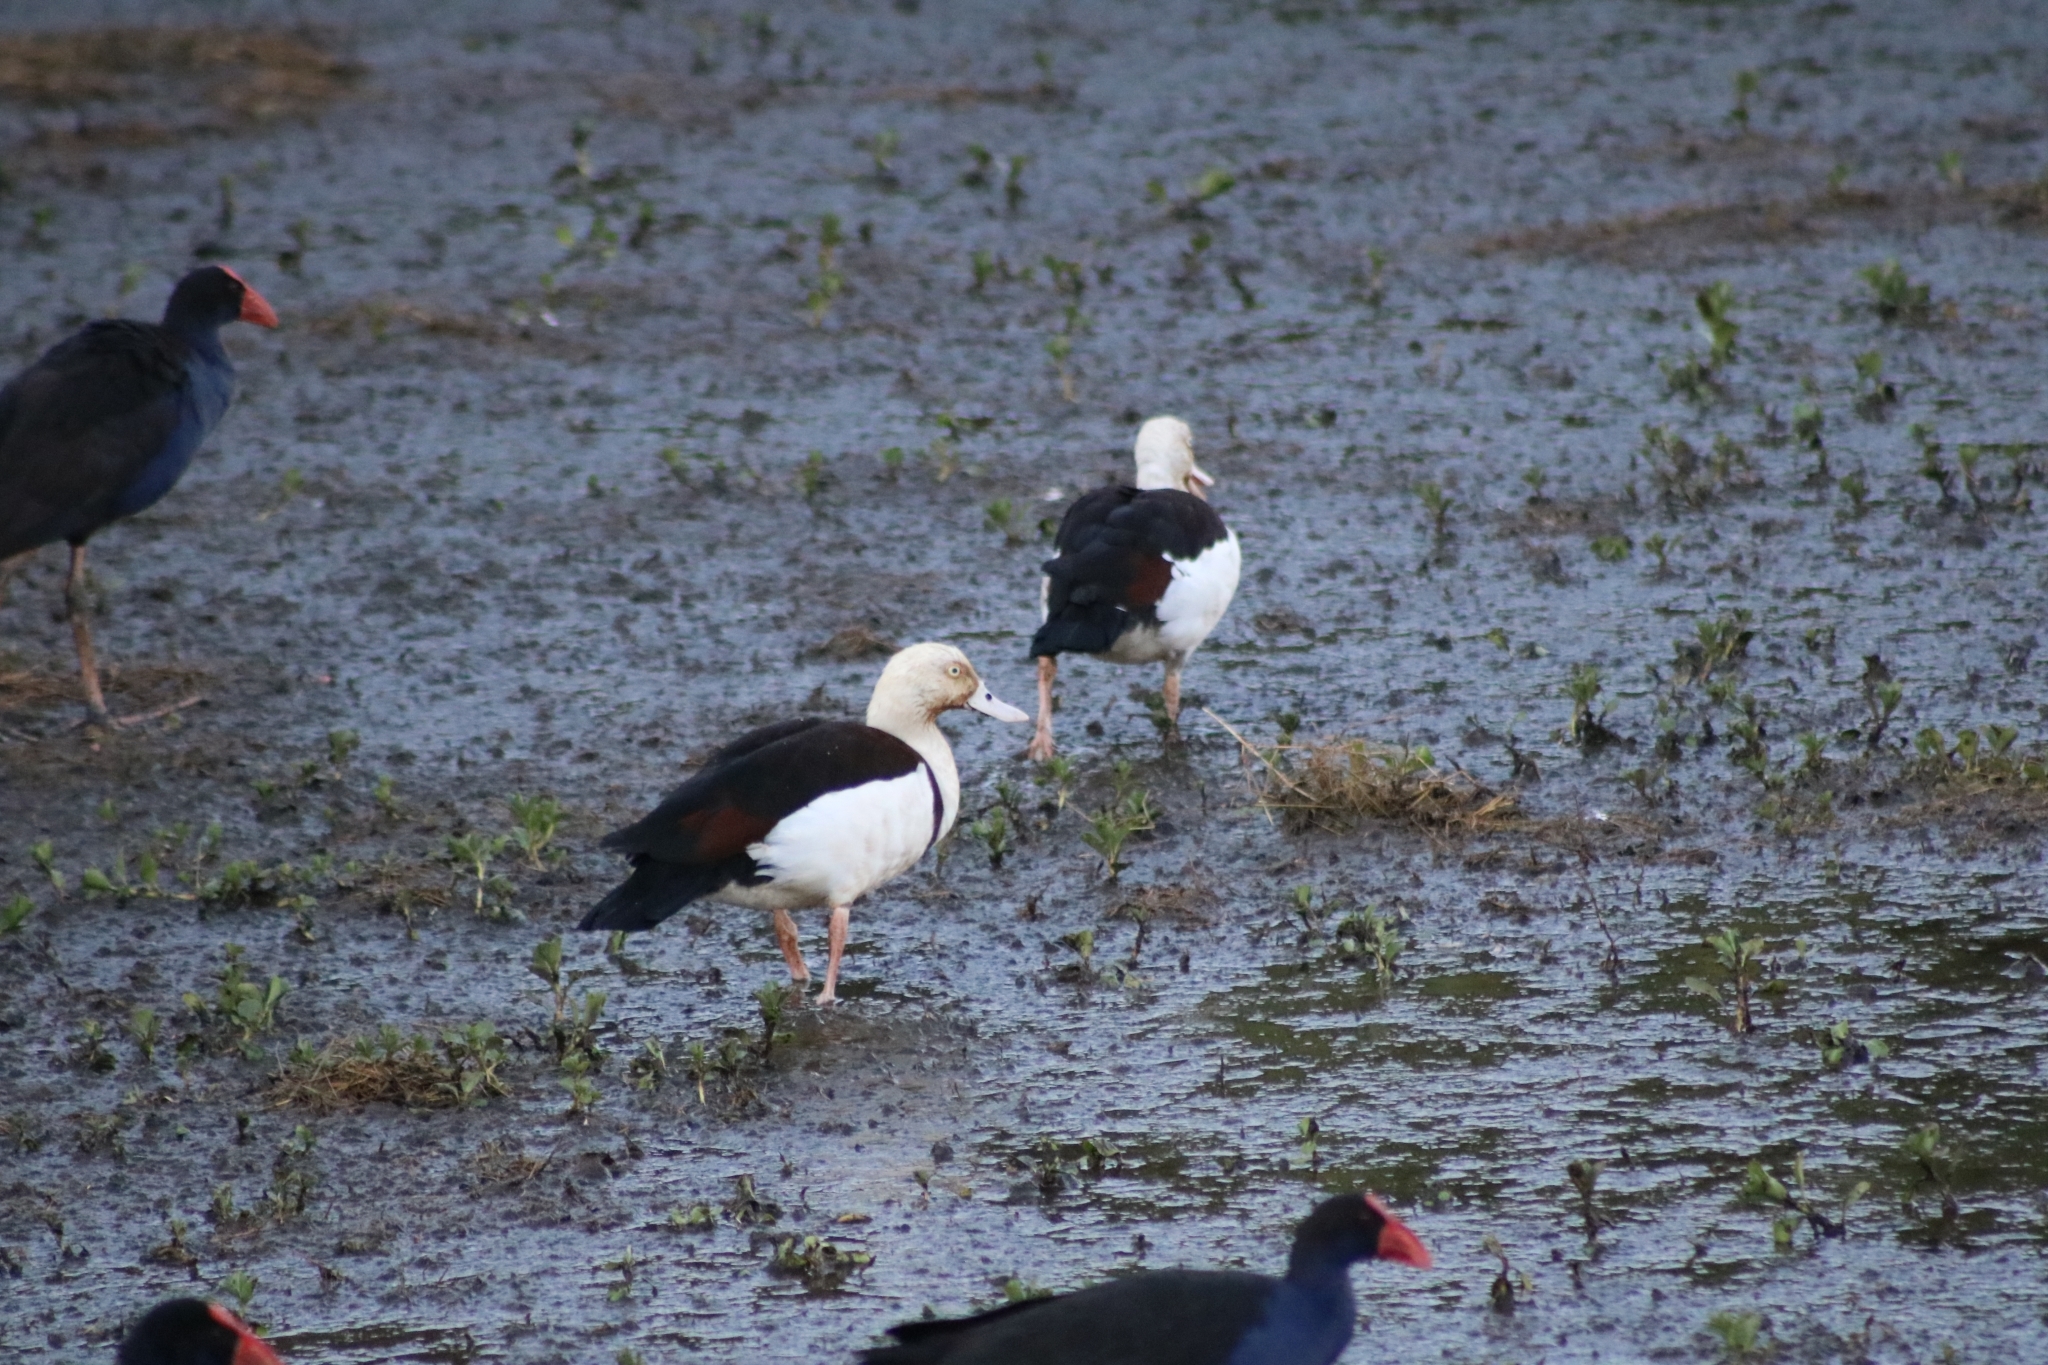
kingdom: Animalia
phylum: Chordata
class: Aves
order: Anseriformes
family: Anatidae
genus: Radjah
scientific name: Radjah radjah
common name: Radjah shelduck
